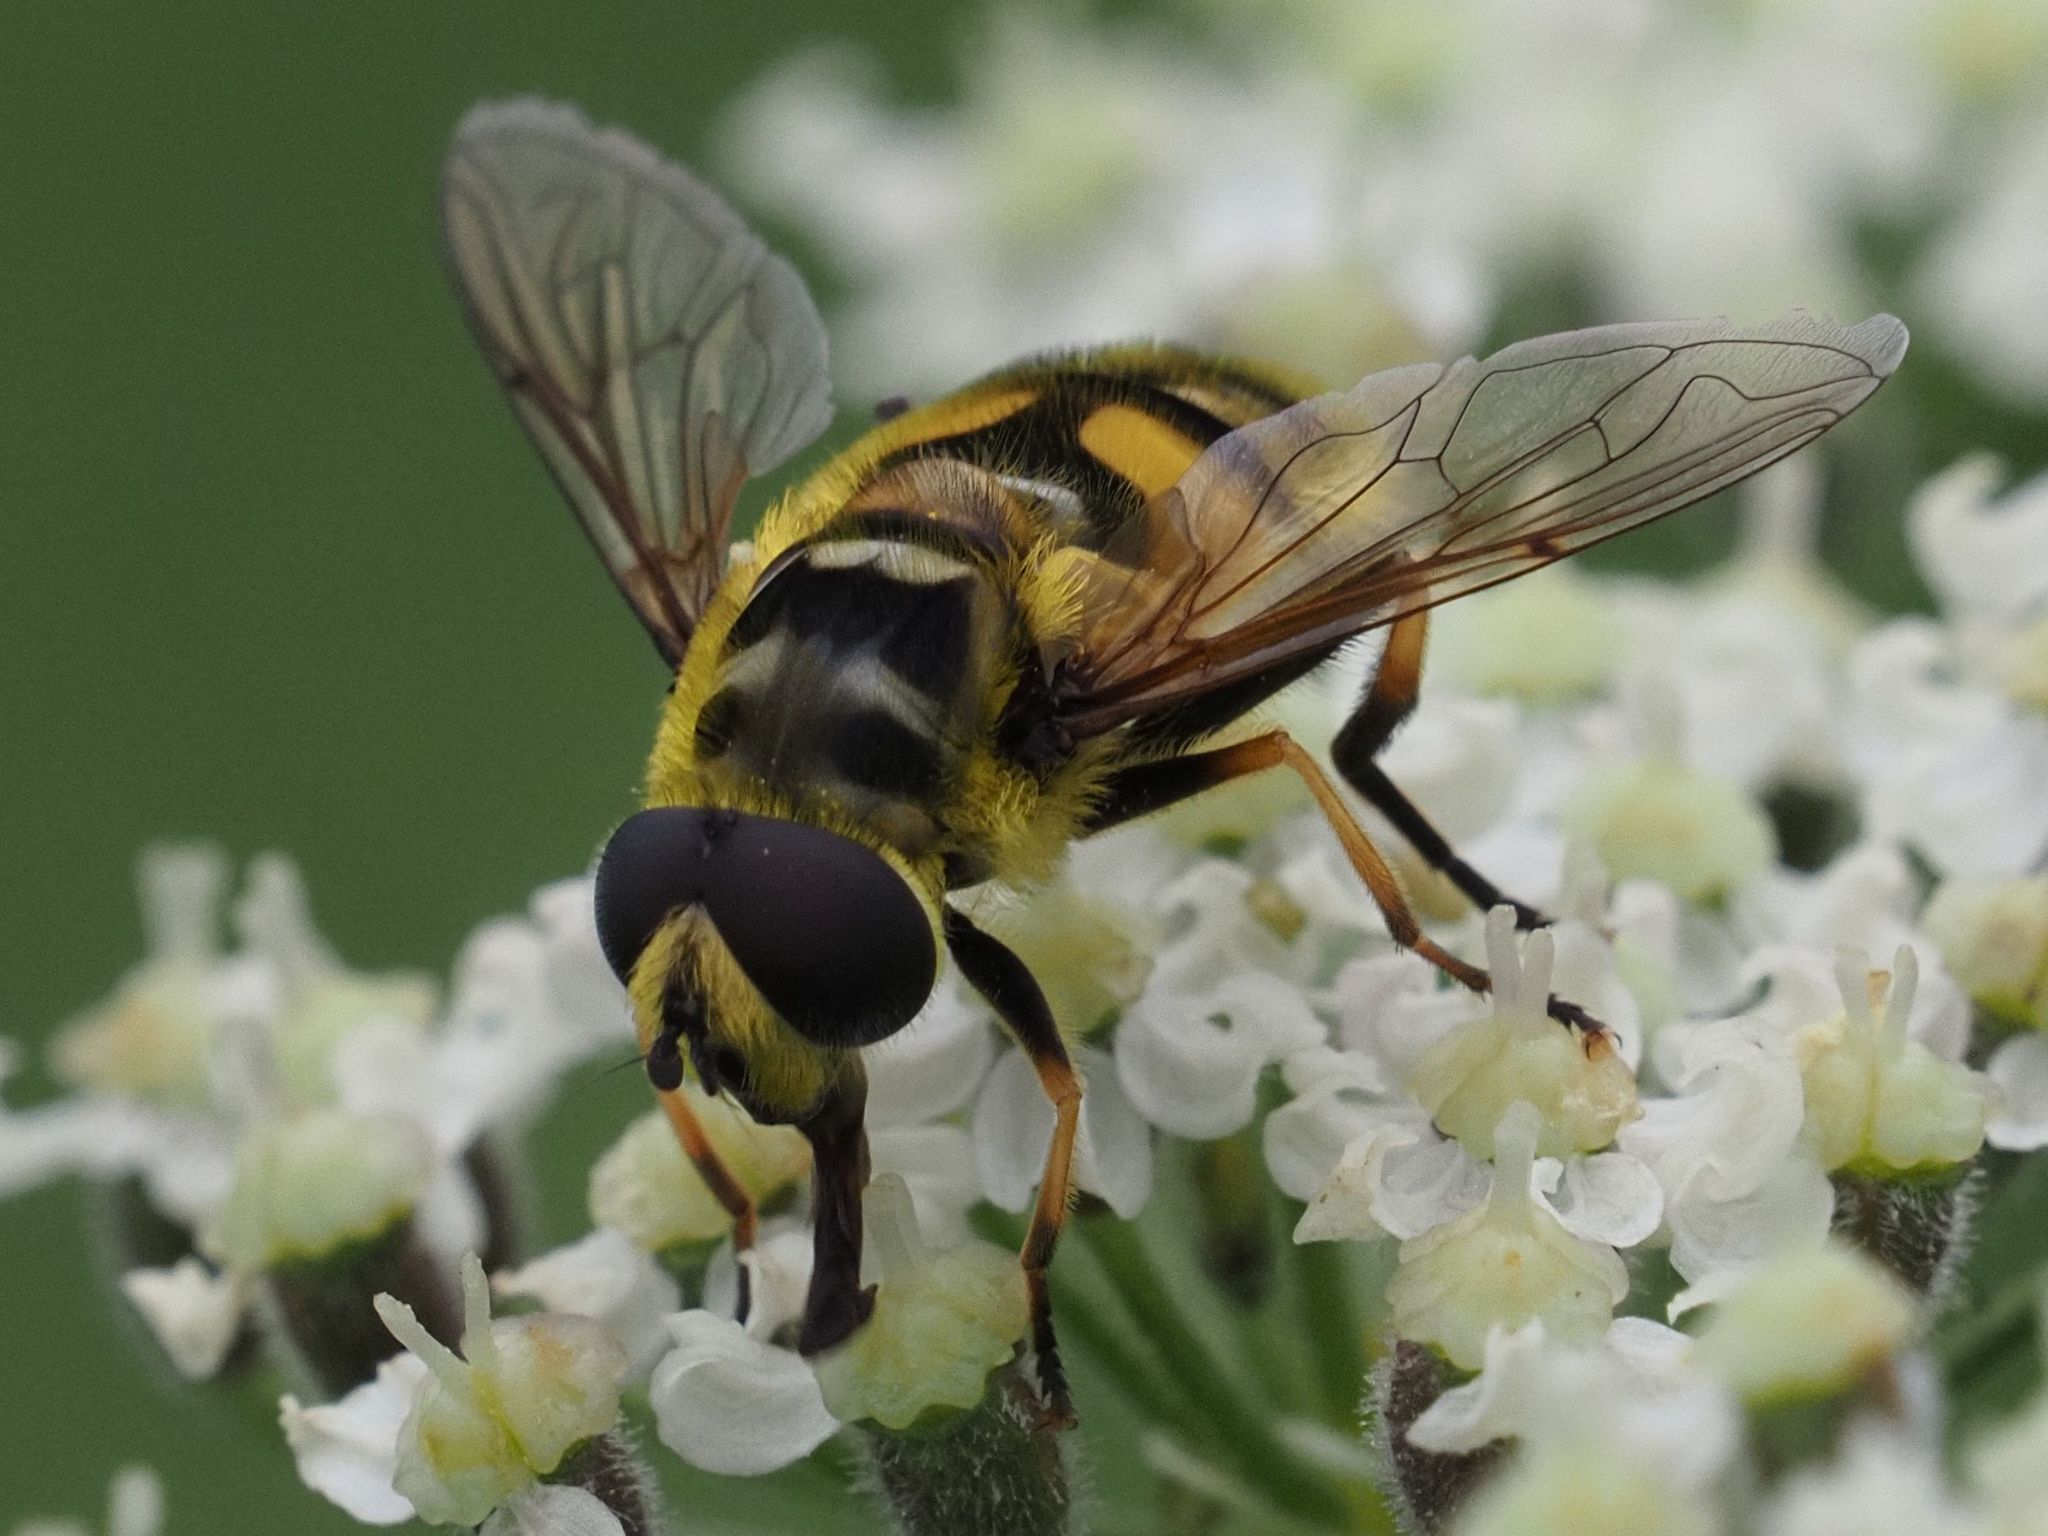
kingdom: Animalia
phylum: Arthropoda
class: Insecta
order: Diptera
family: Syrphidae
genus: Myathropa
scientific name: Myathropa florea
